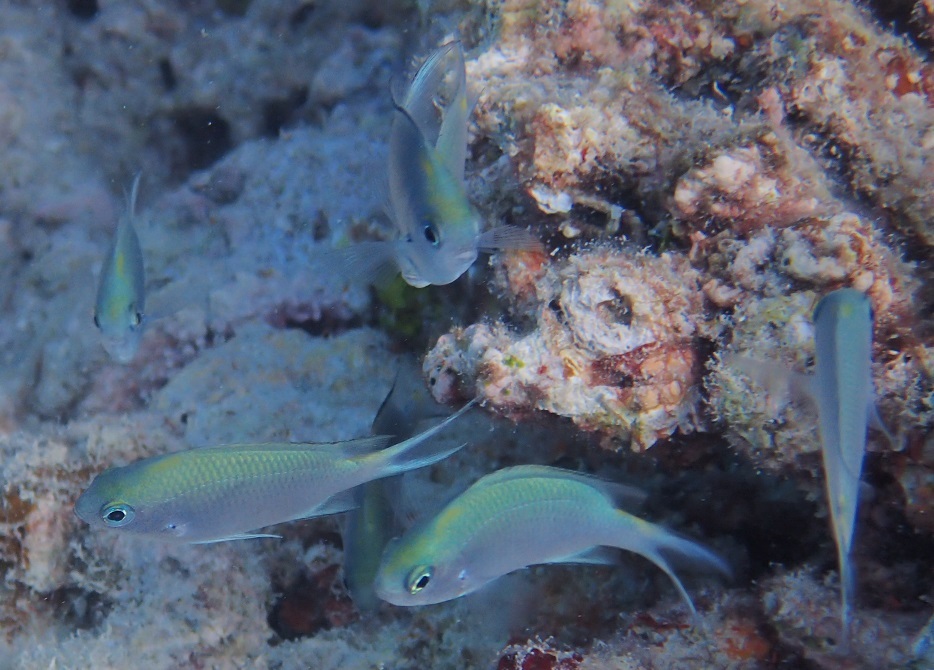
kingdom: Animalia
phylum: Chordata
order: Perciformes
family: Pomacentridae
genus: Acanthochromis
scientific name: Acanthochromis polyacanthus
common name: Spiny chromis
